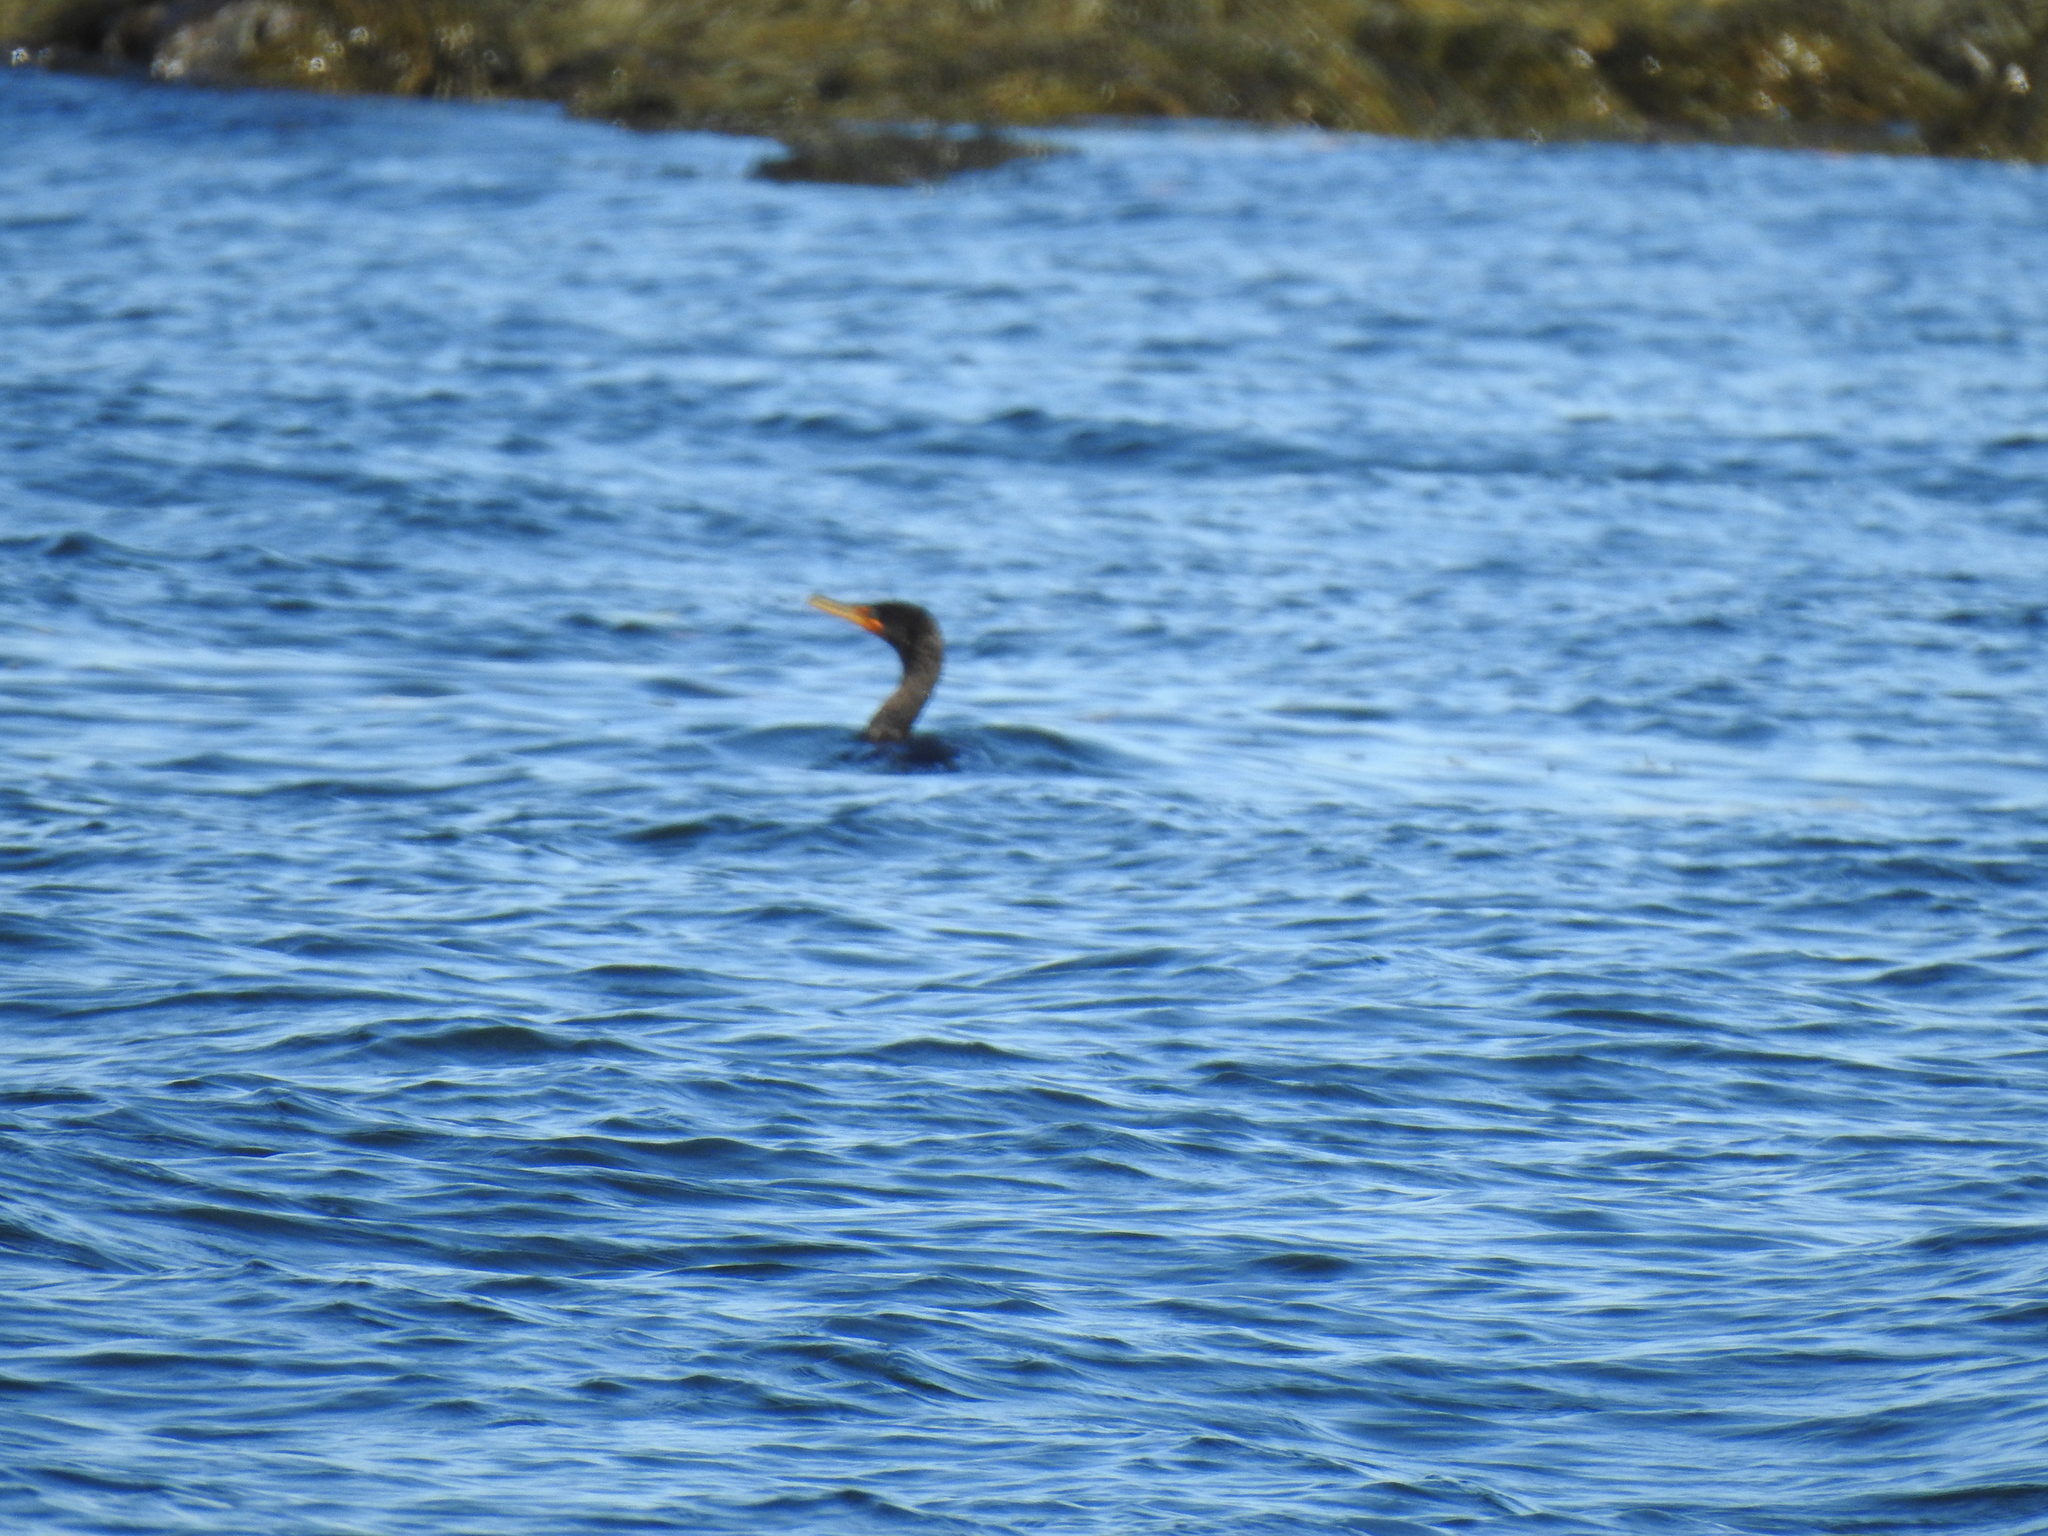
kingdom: Animalia
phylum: Chordata
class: Aves
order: Suliformes
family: Phalacrocoracidae
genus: Phalacrocorax
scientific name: Phalacrocorax auritus
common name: Double-crested cormorant
